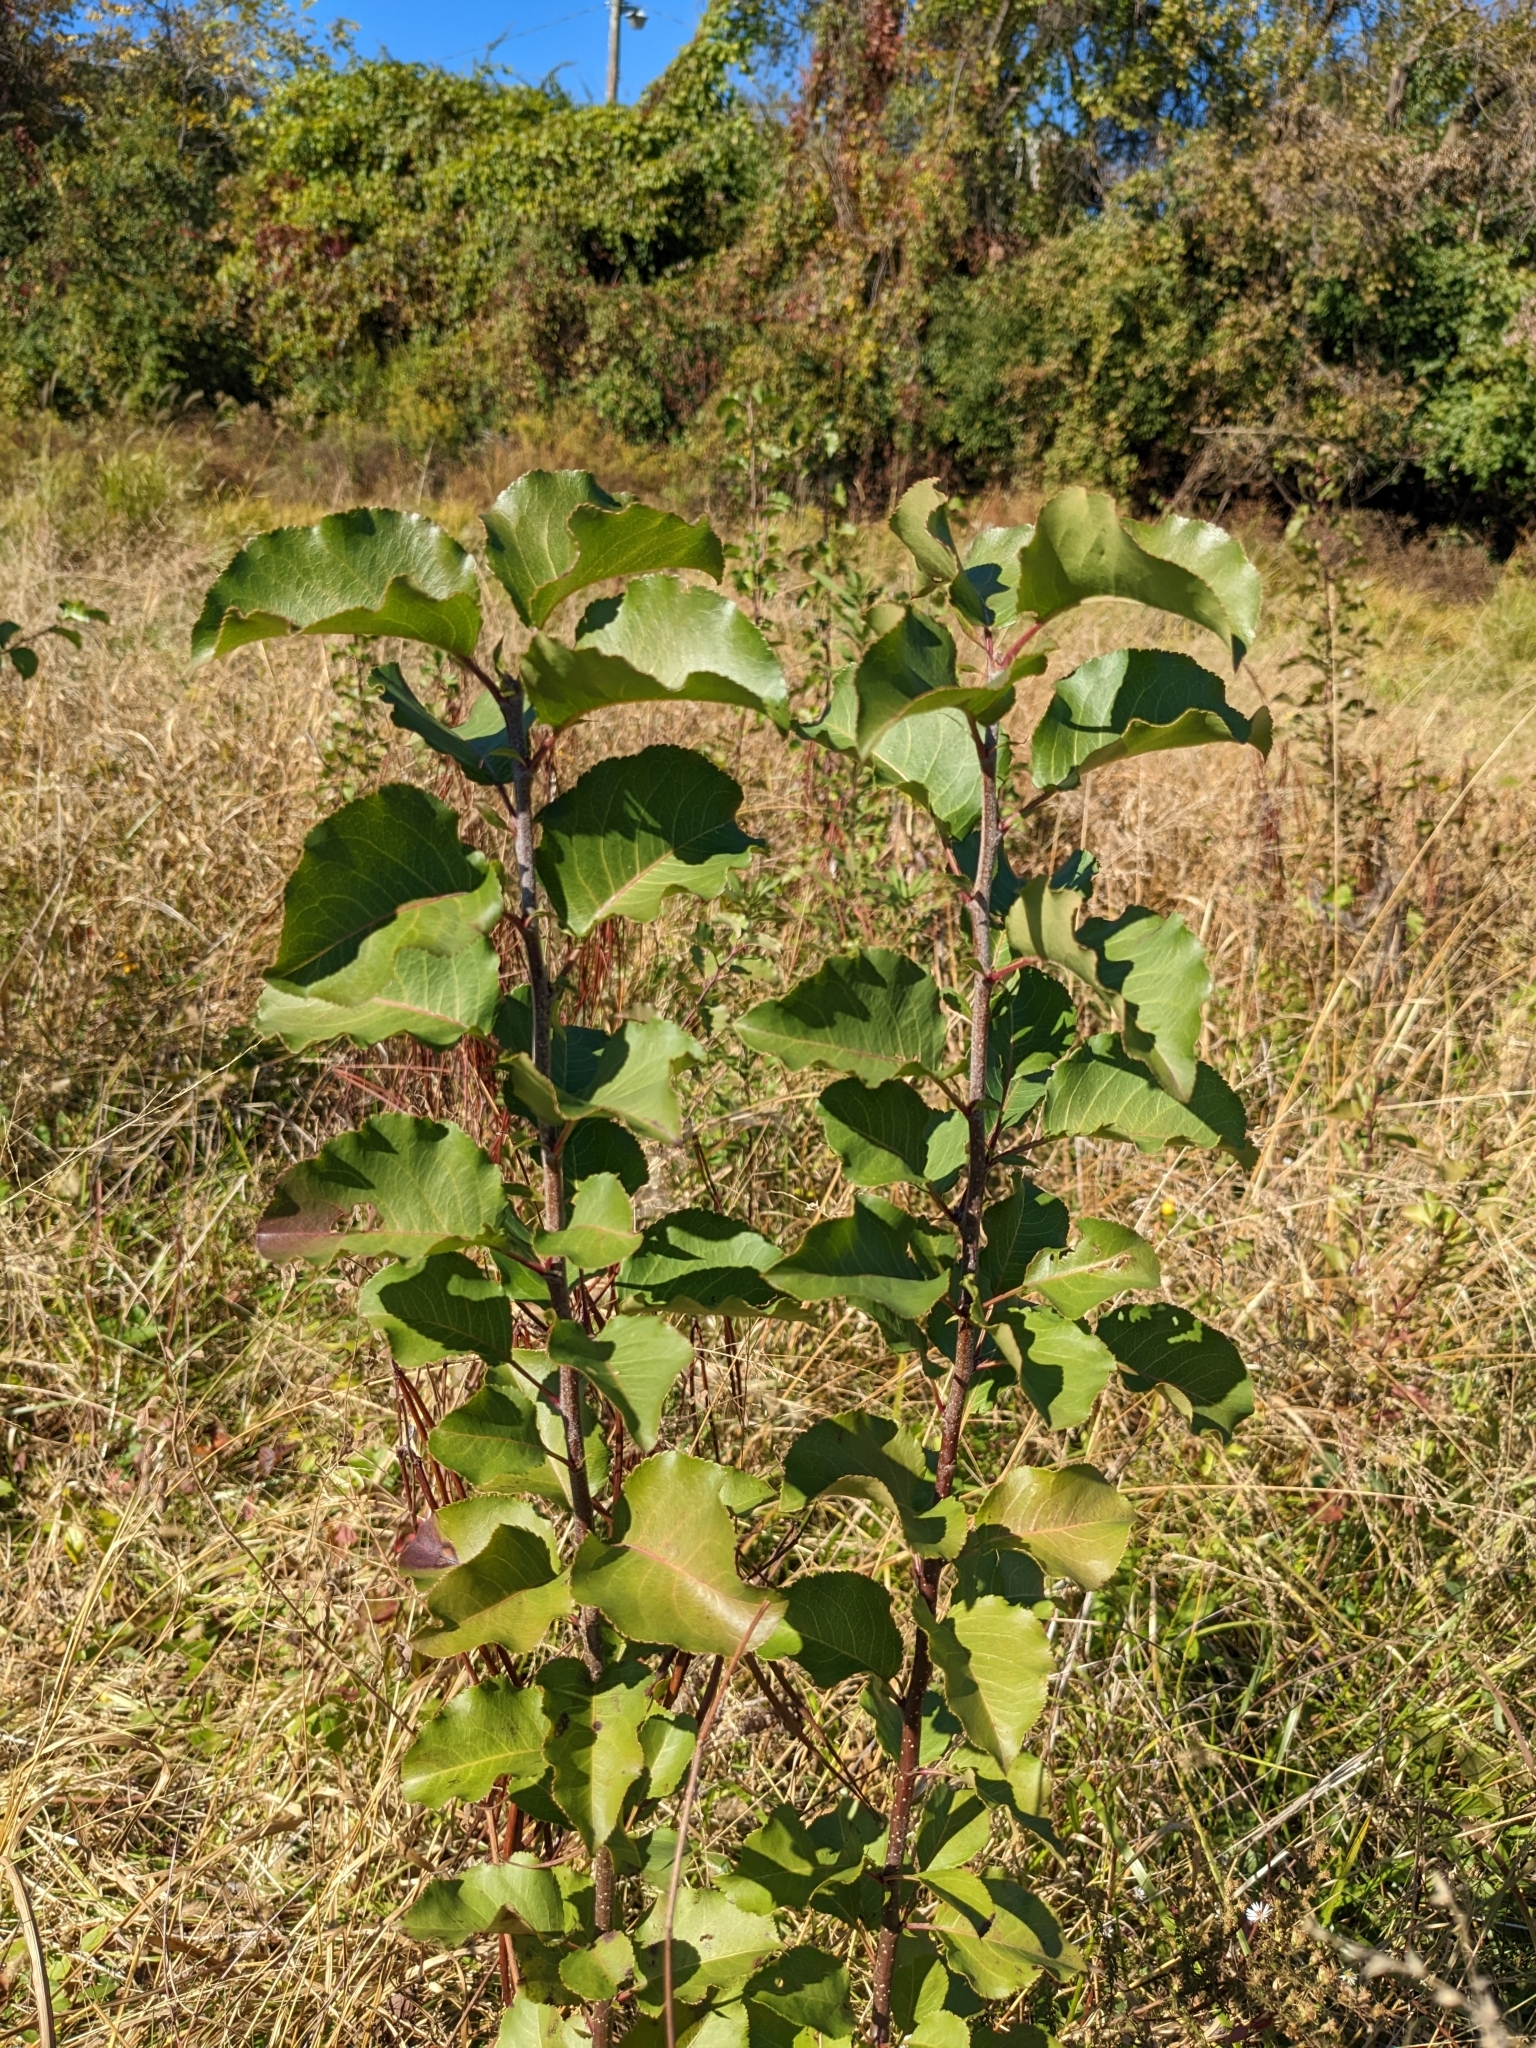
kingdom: Plantae
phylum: Tracheophyta
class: Magnoliopsida
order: Rosales
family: Rosaceae
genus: Pyrus
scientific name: Pyrus calleryana
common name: Callery pear
